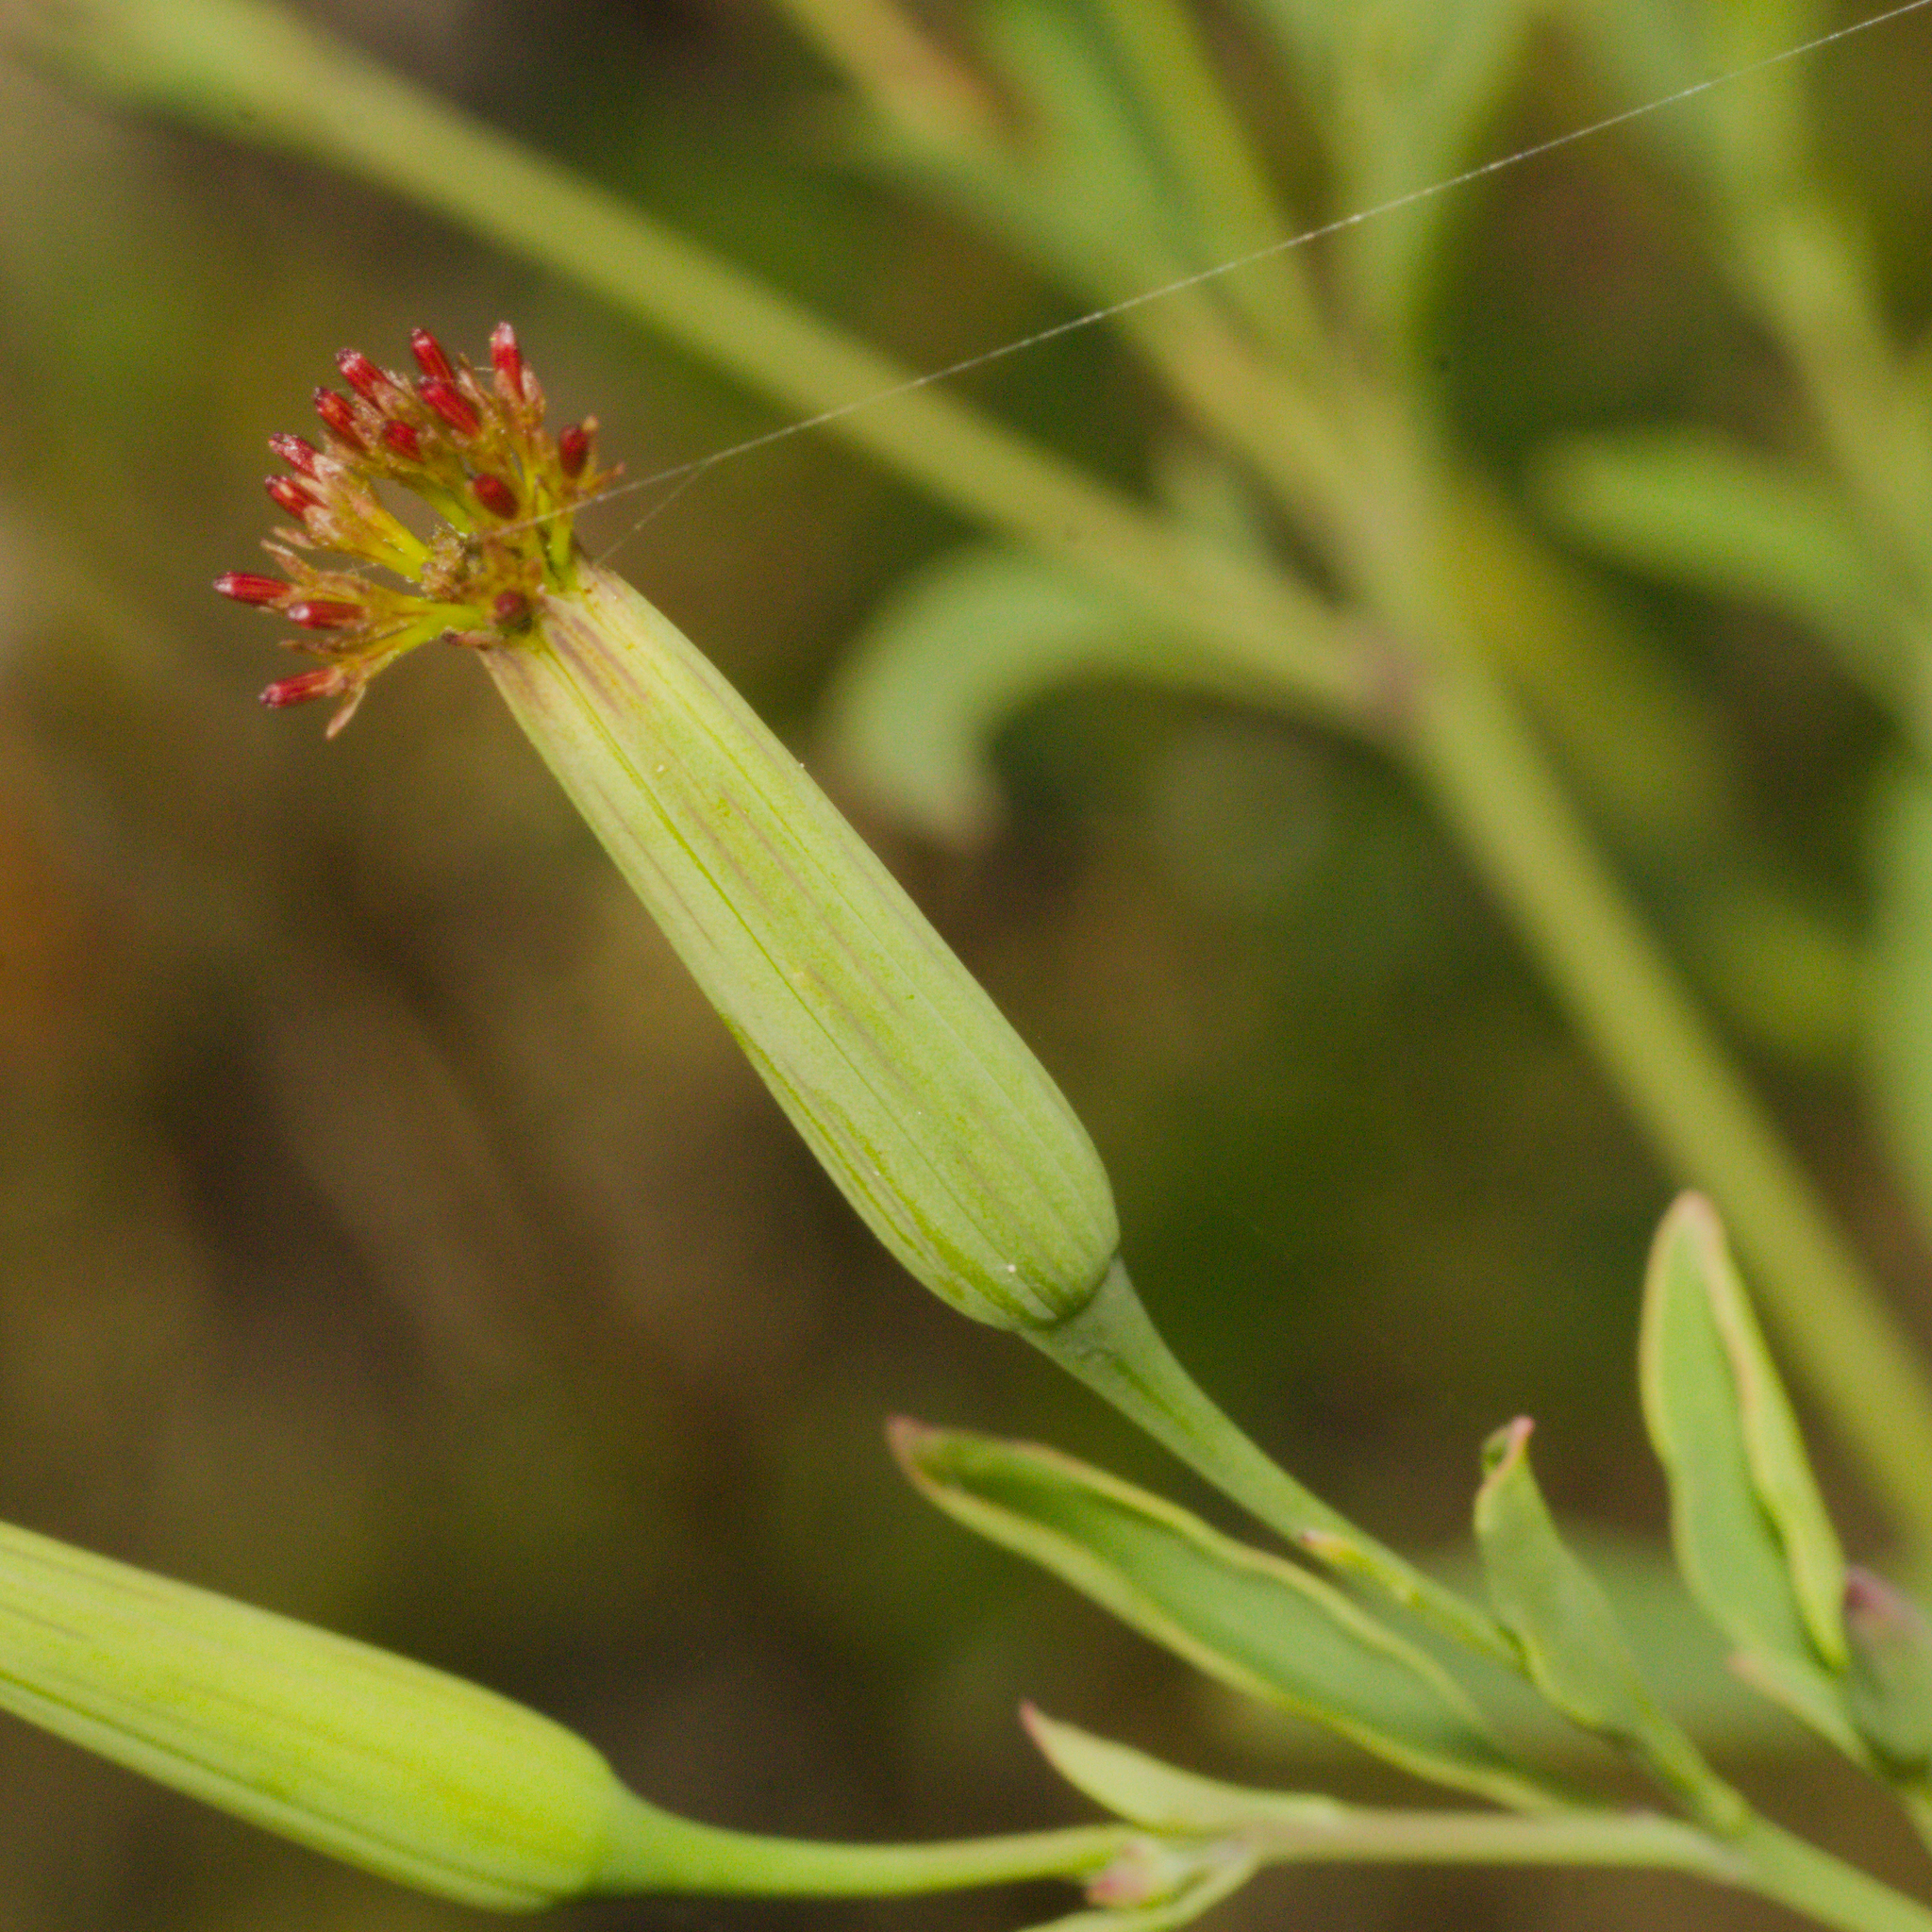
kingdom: Plantae
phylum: Tracheophyta
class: Magnoliopsida
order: Asterales
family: Asteraceae
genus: Porophyllum
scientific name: Porophyllum ruderale
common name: Yerba porosa
